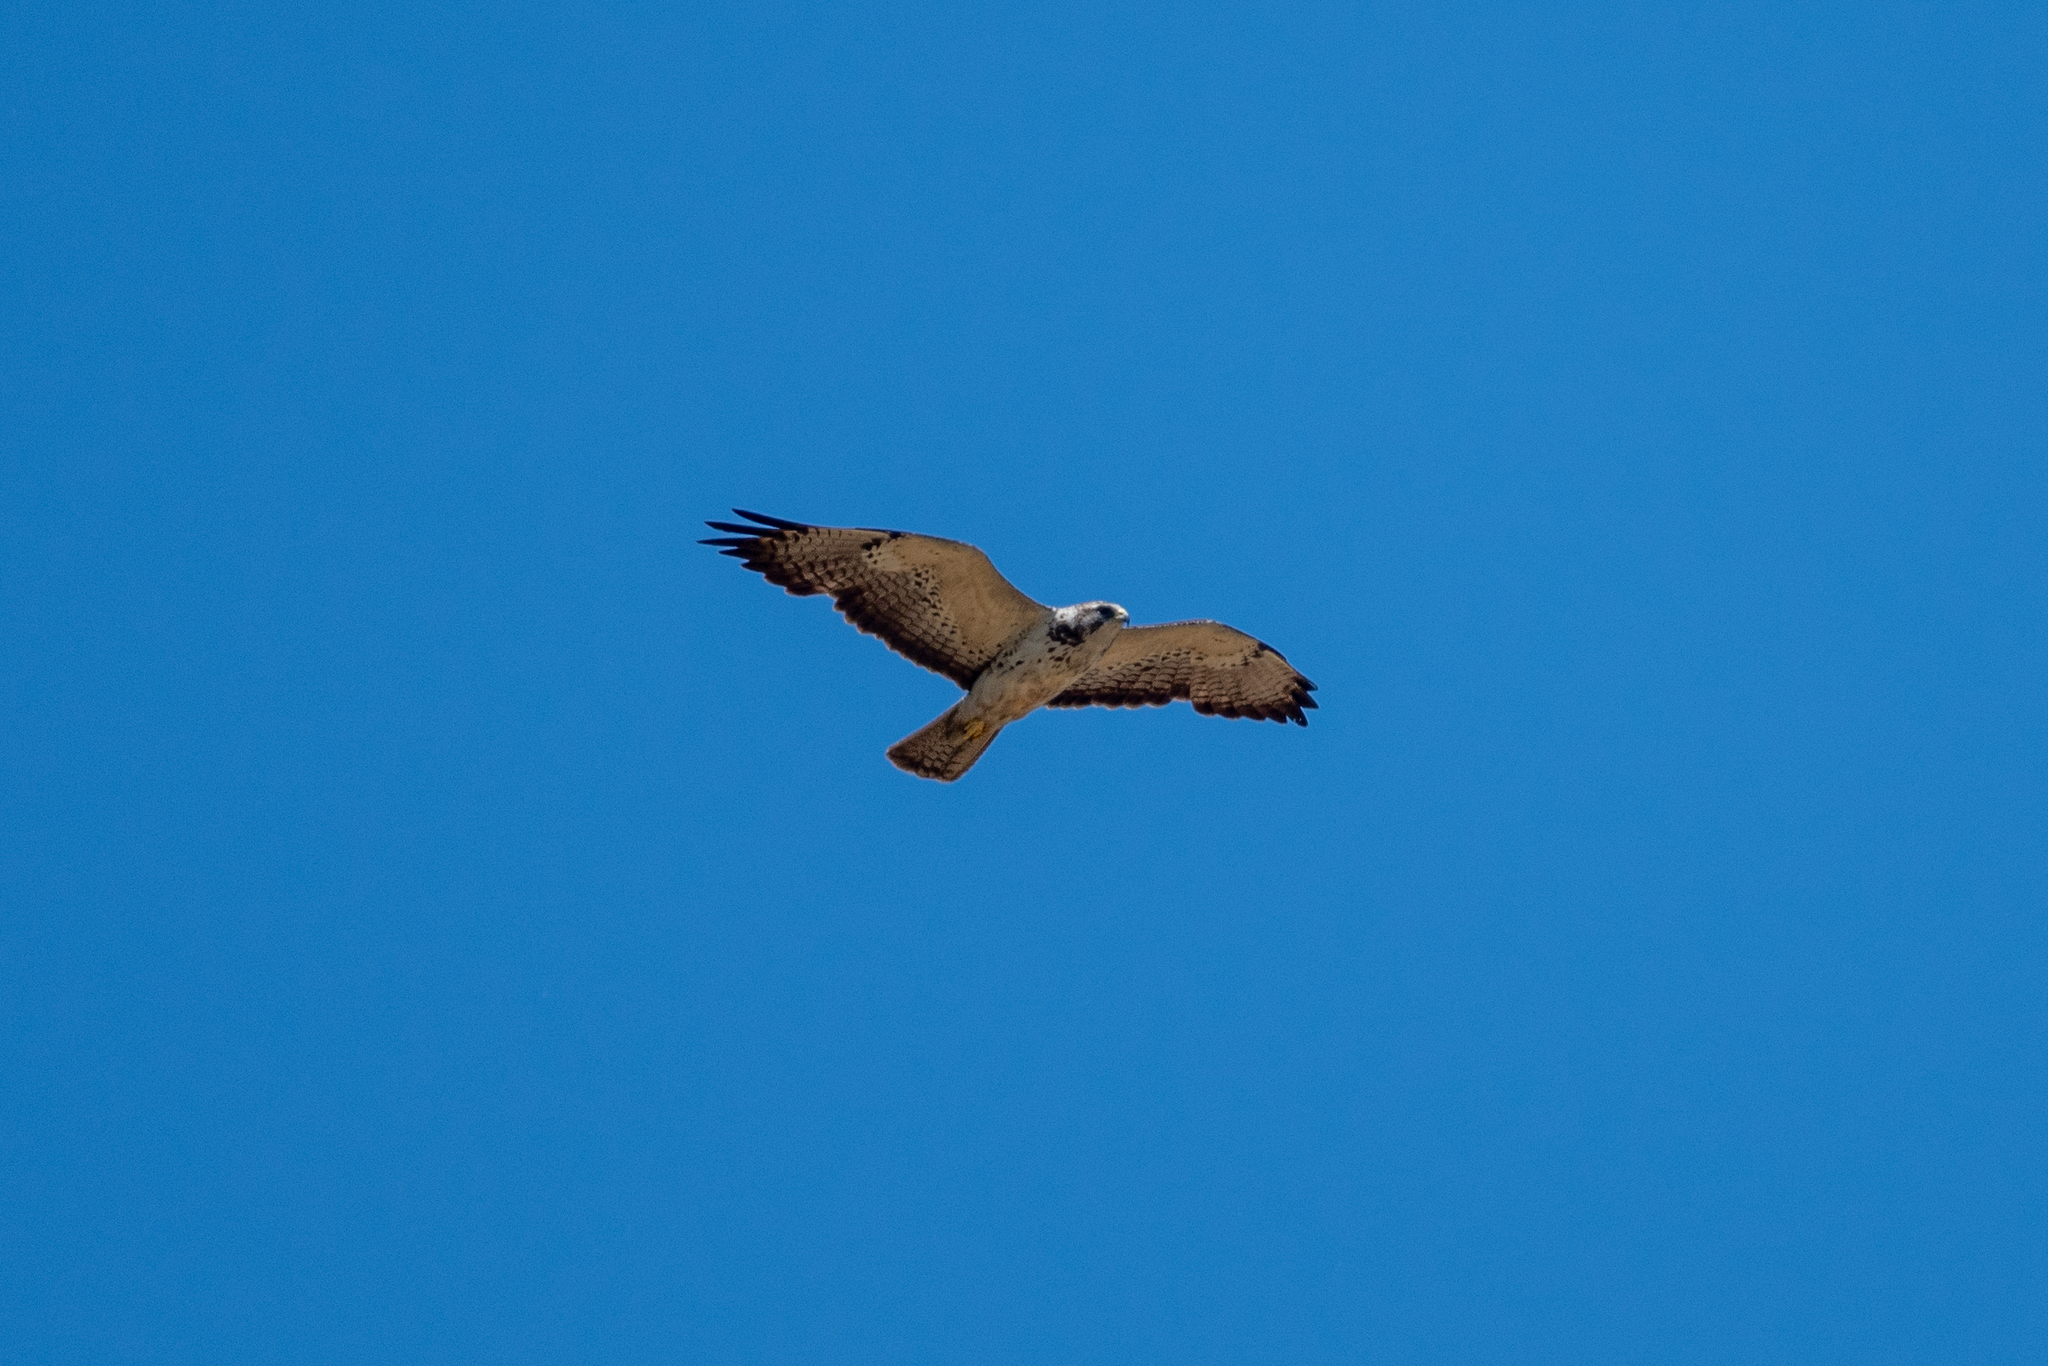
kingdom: Animalia
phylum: Chordata
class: Aves
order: Accipitriformes
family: Accipitridae
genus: Buteo
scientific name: Buteo swainsoni
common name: Swainson's hawk
